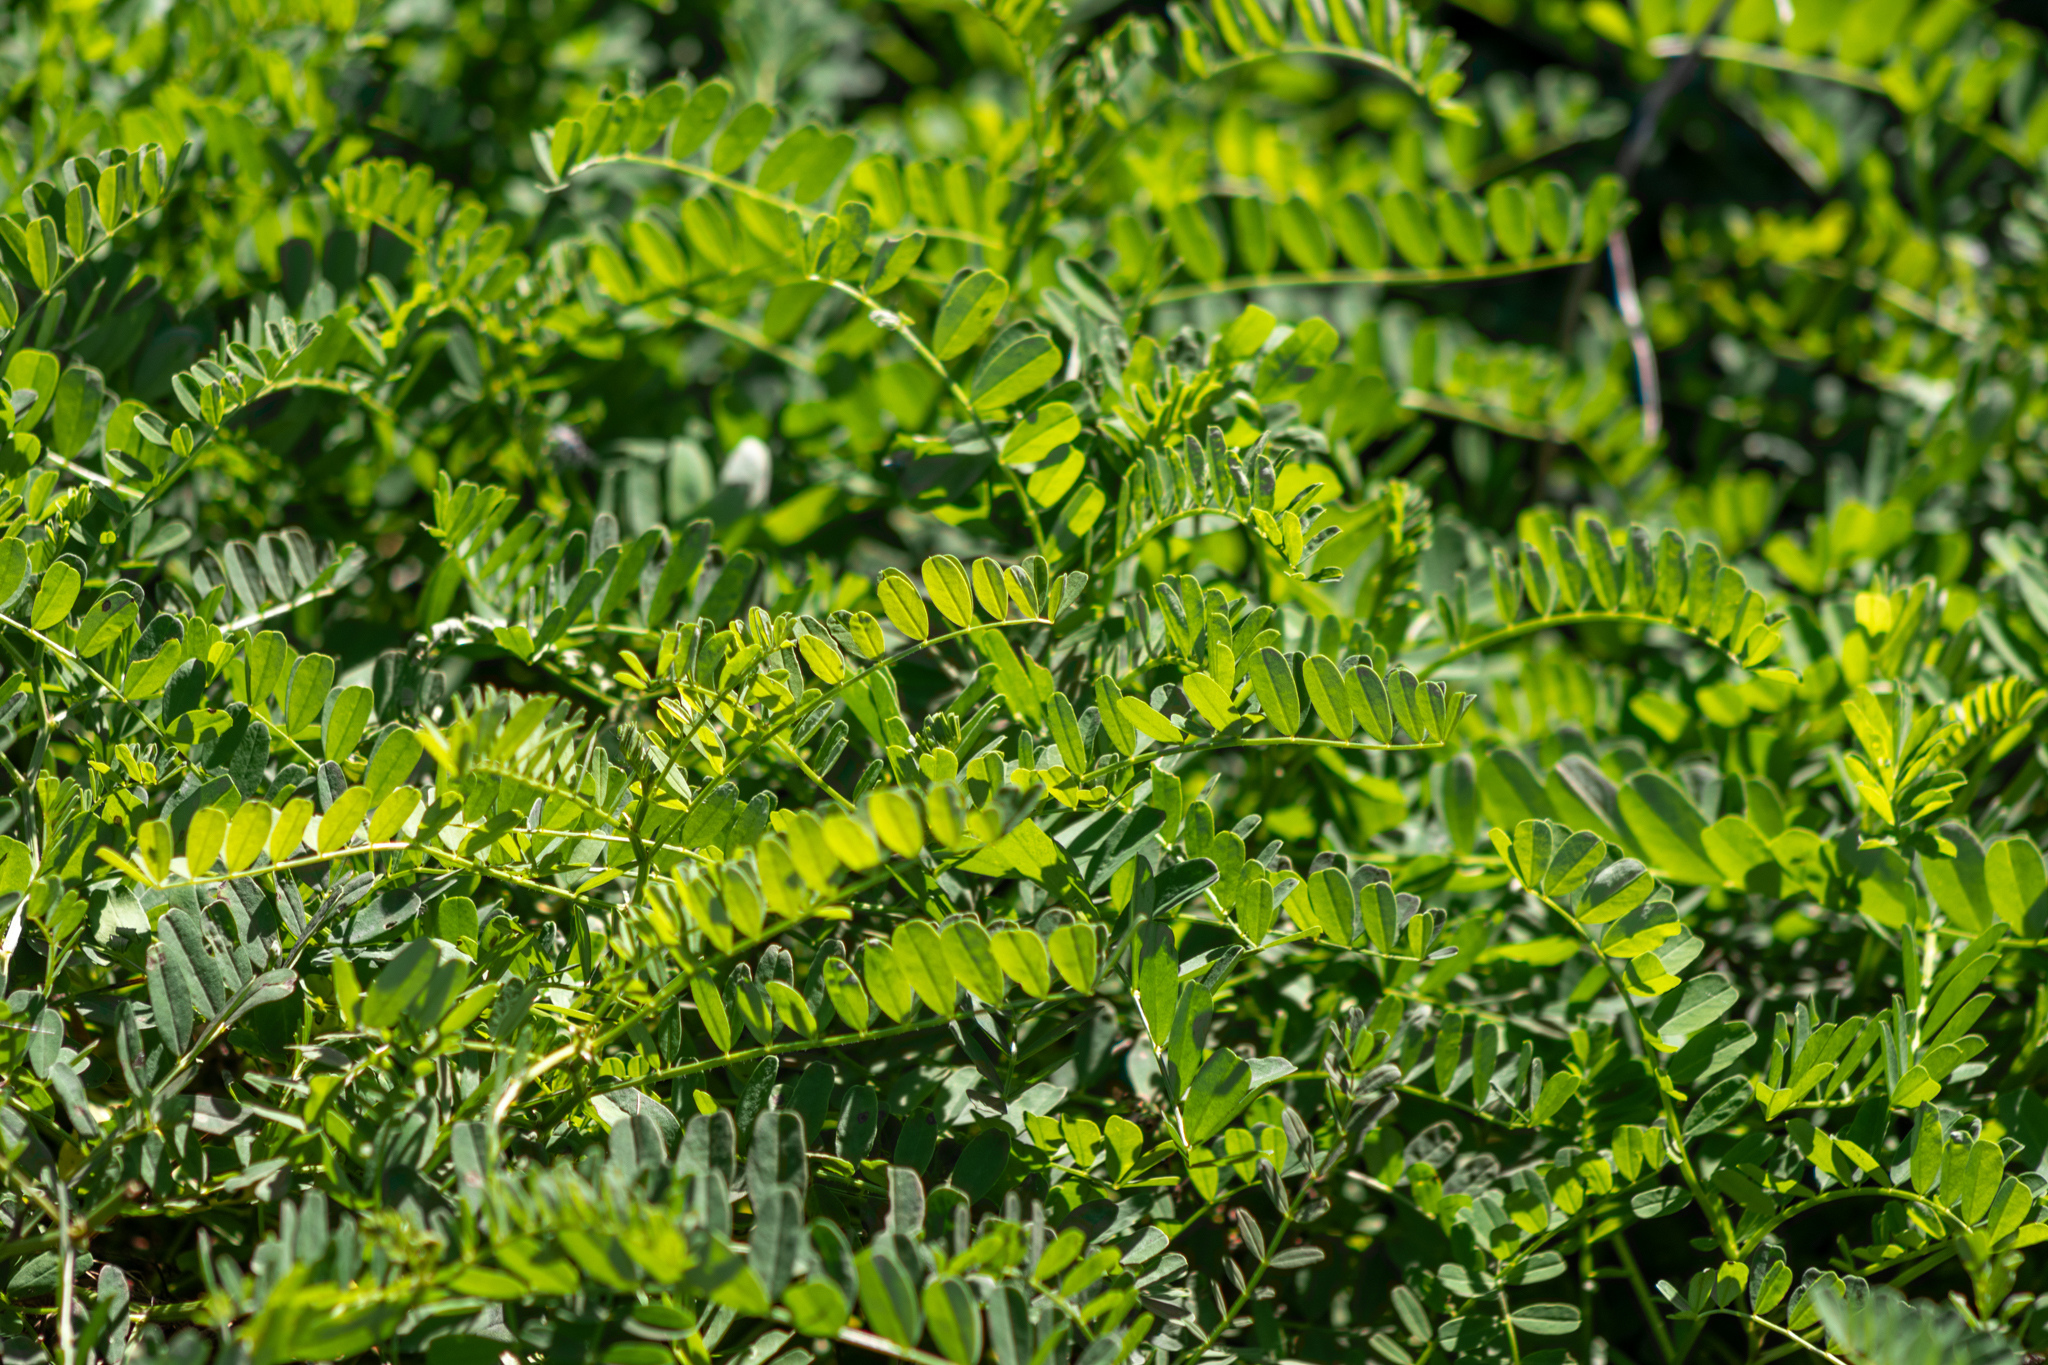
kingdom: Plantae
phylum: Tracheophyta
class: Magnoliopsida
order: Fabales
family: Fabaceae
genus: Coronilla
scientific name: Coronilla varia
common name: Crownvetch
